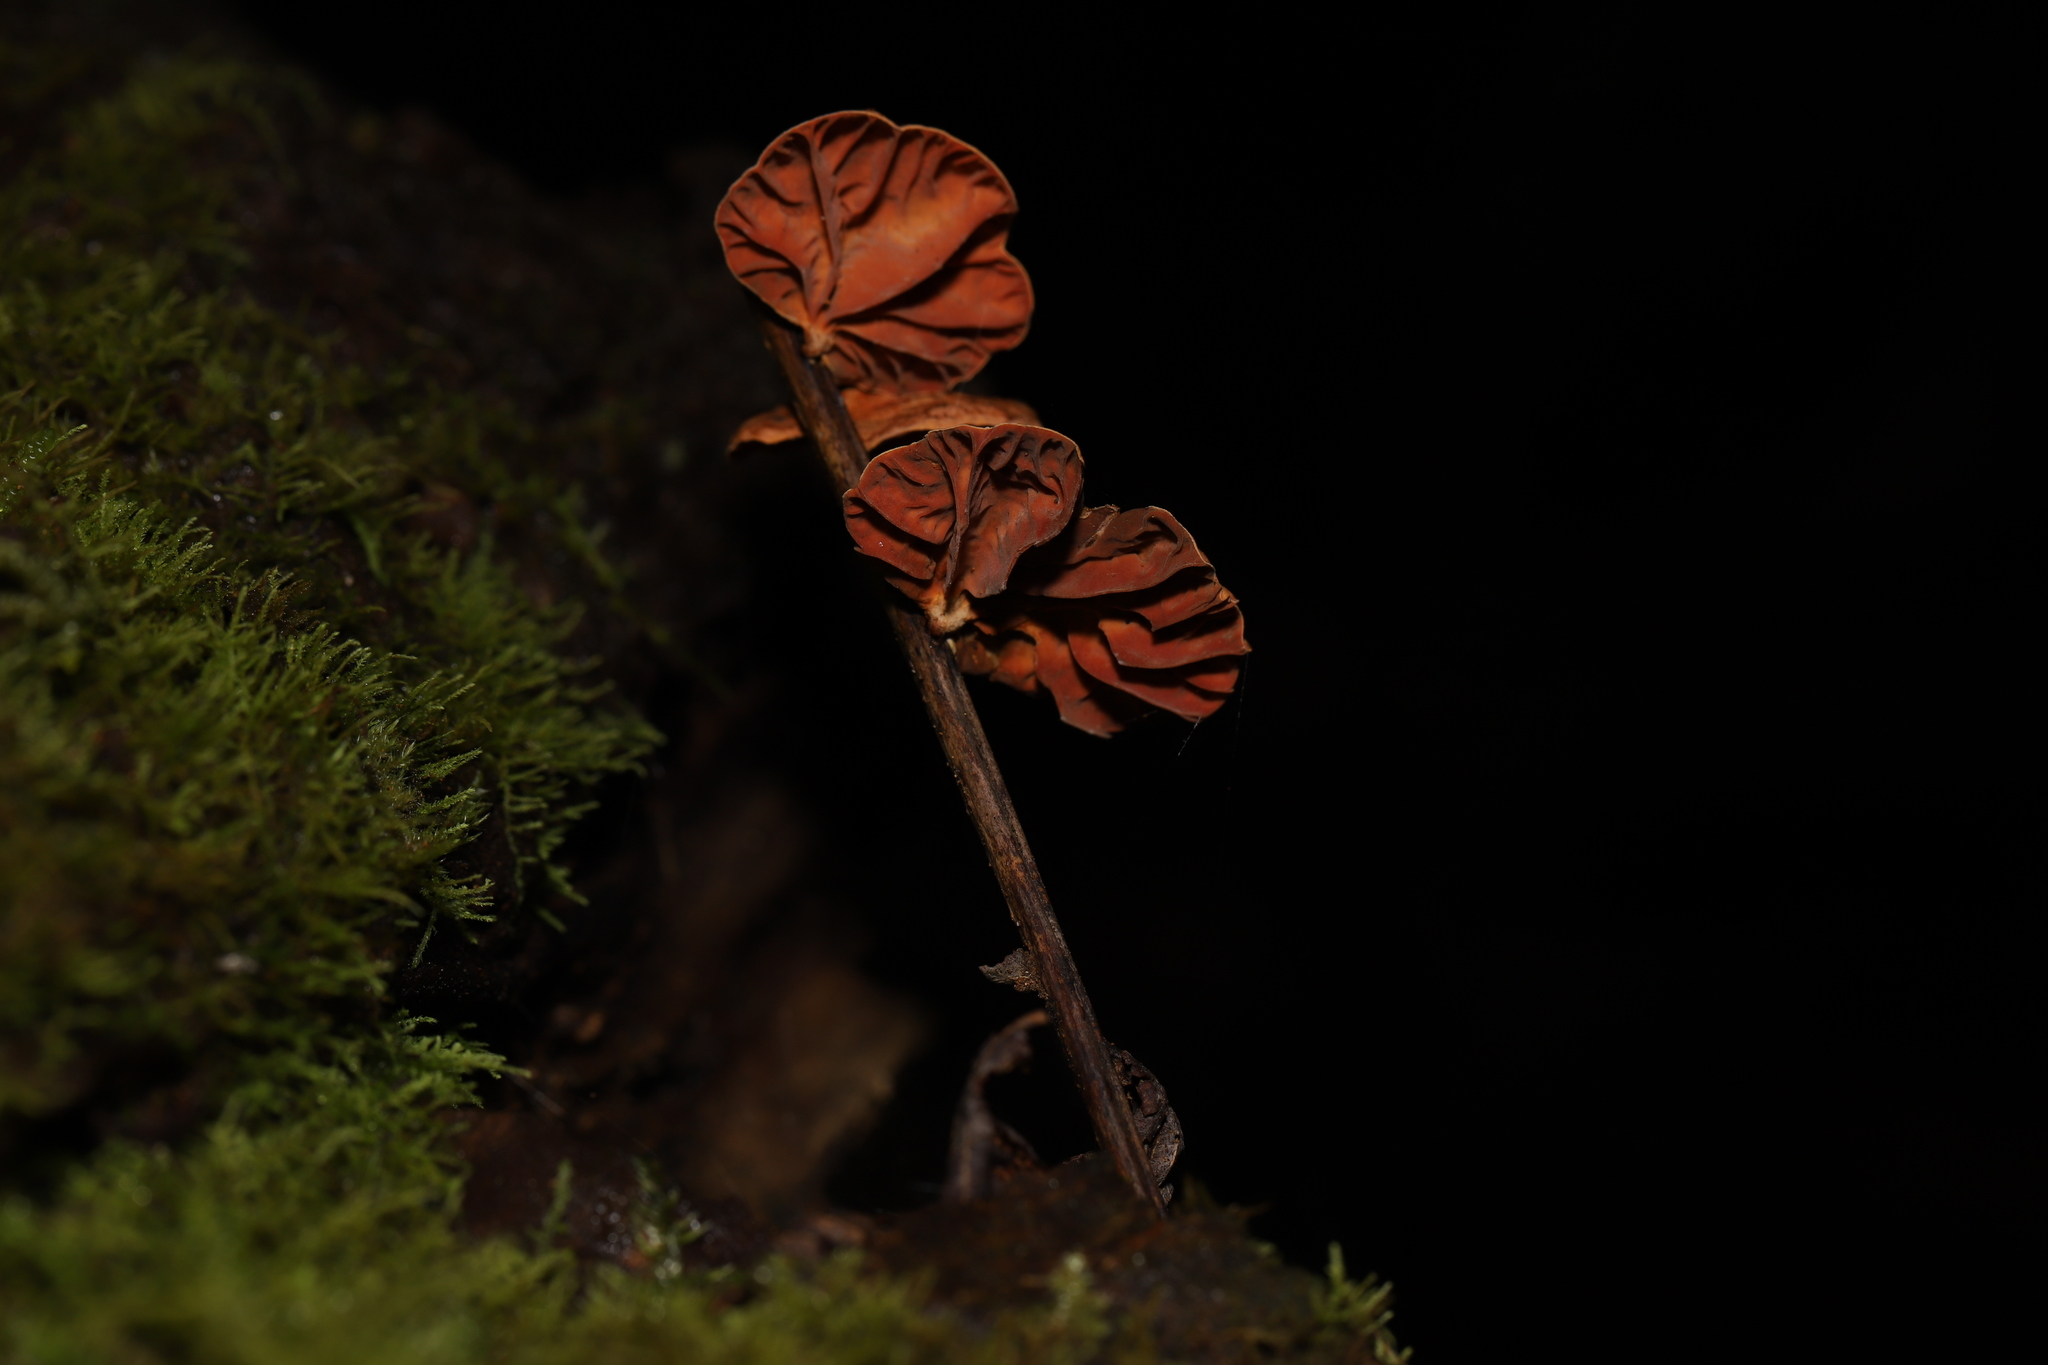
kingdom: Fungi
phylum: Basidiomycota
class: Agaricomycetes
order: Agaricales
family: Omphalotaceae
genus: Anthracophyllum
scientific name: Anthracophyllum archeri
